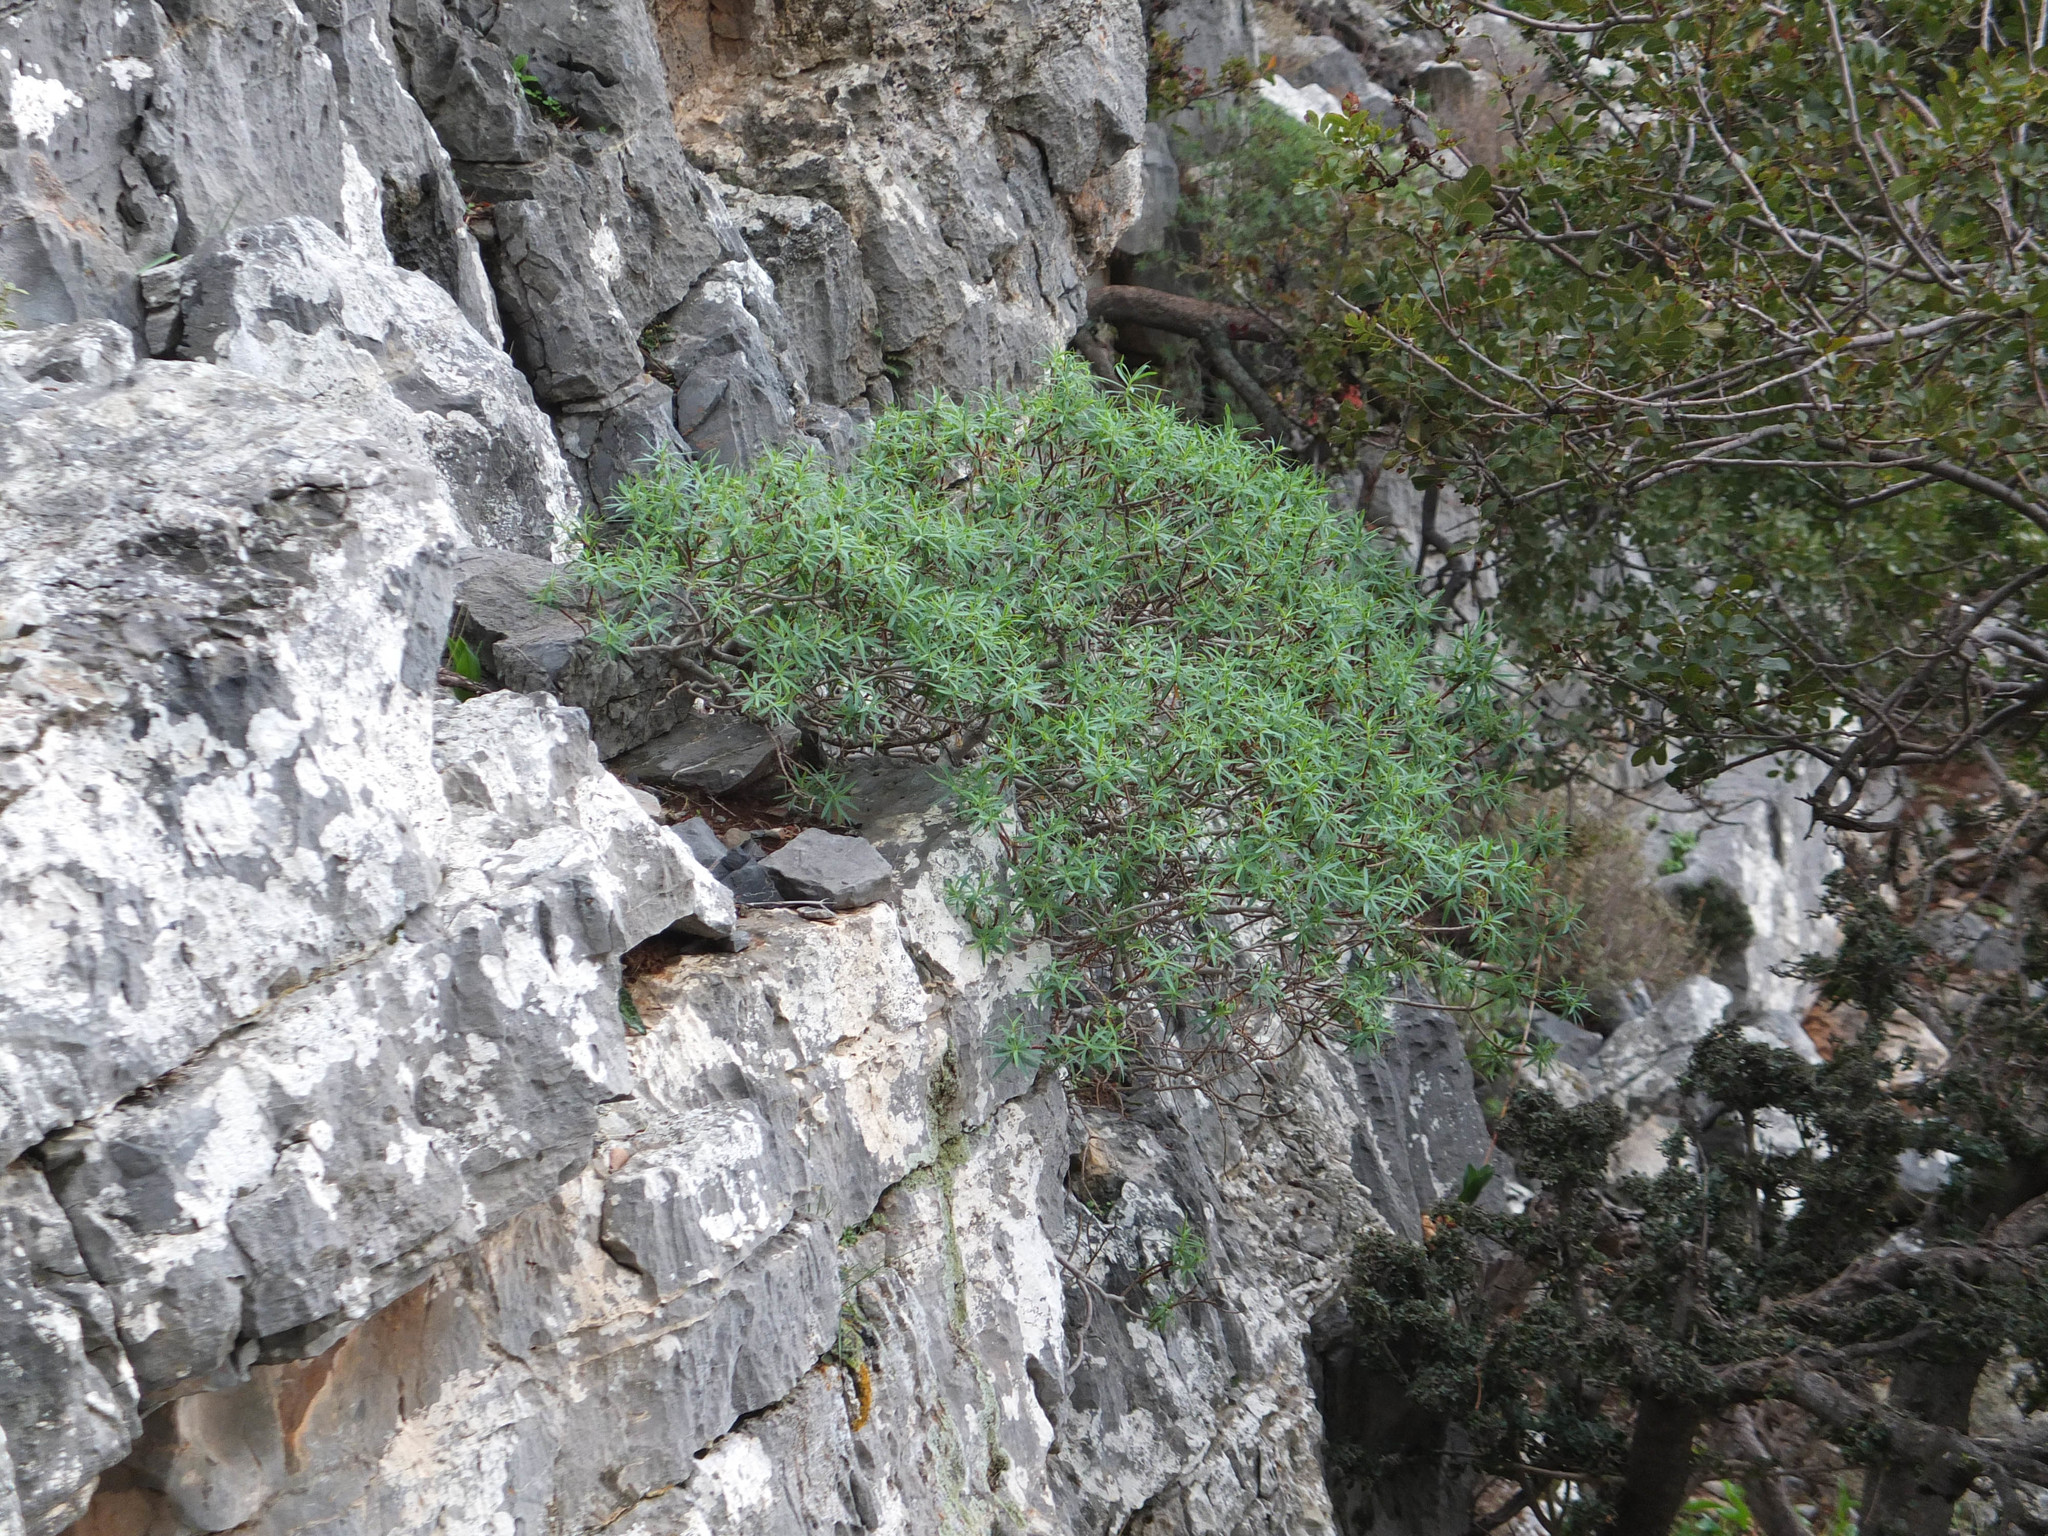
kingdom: Plantae
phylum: Tracheophyta
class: Magnoliopsida
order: Malpighiales
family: Euphorbiaceae
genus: Euphorbia
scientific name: Euphorbia dendroides
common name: Tree spurge
